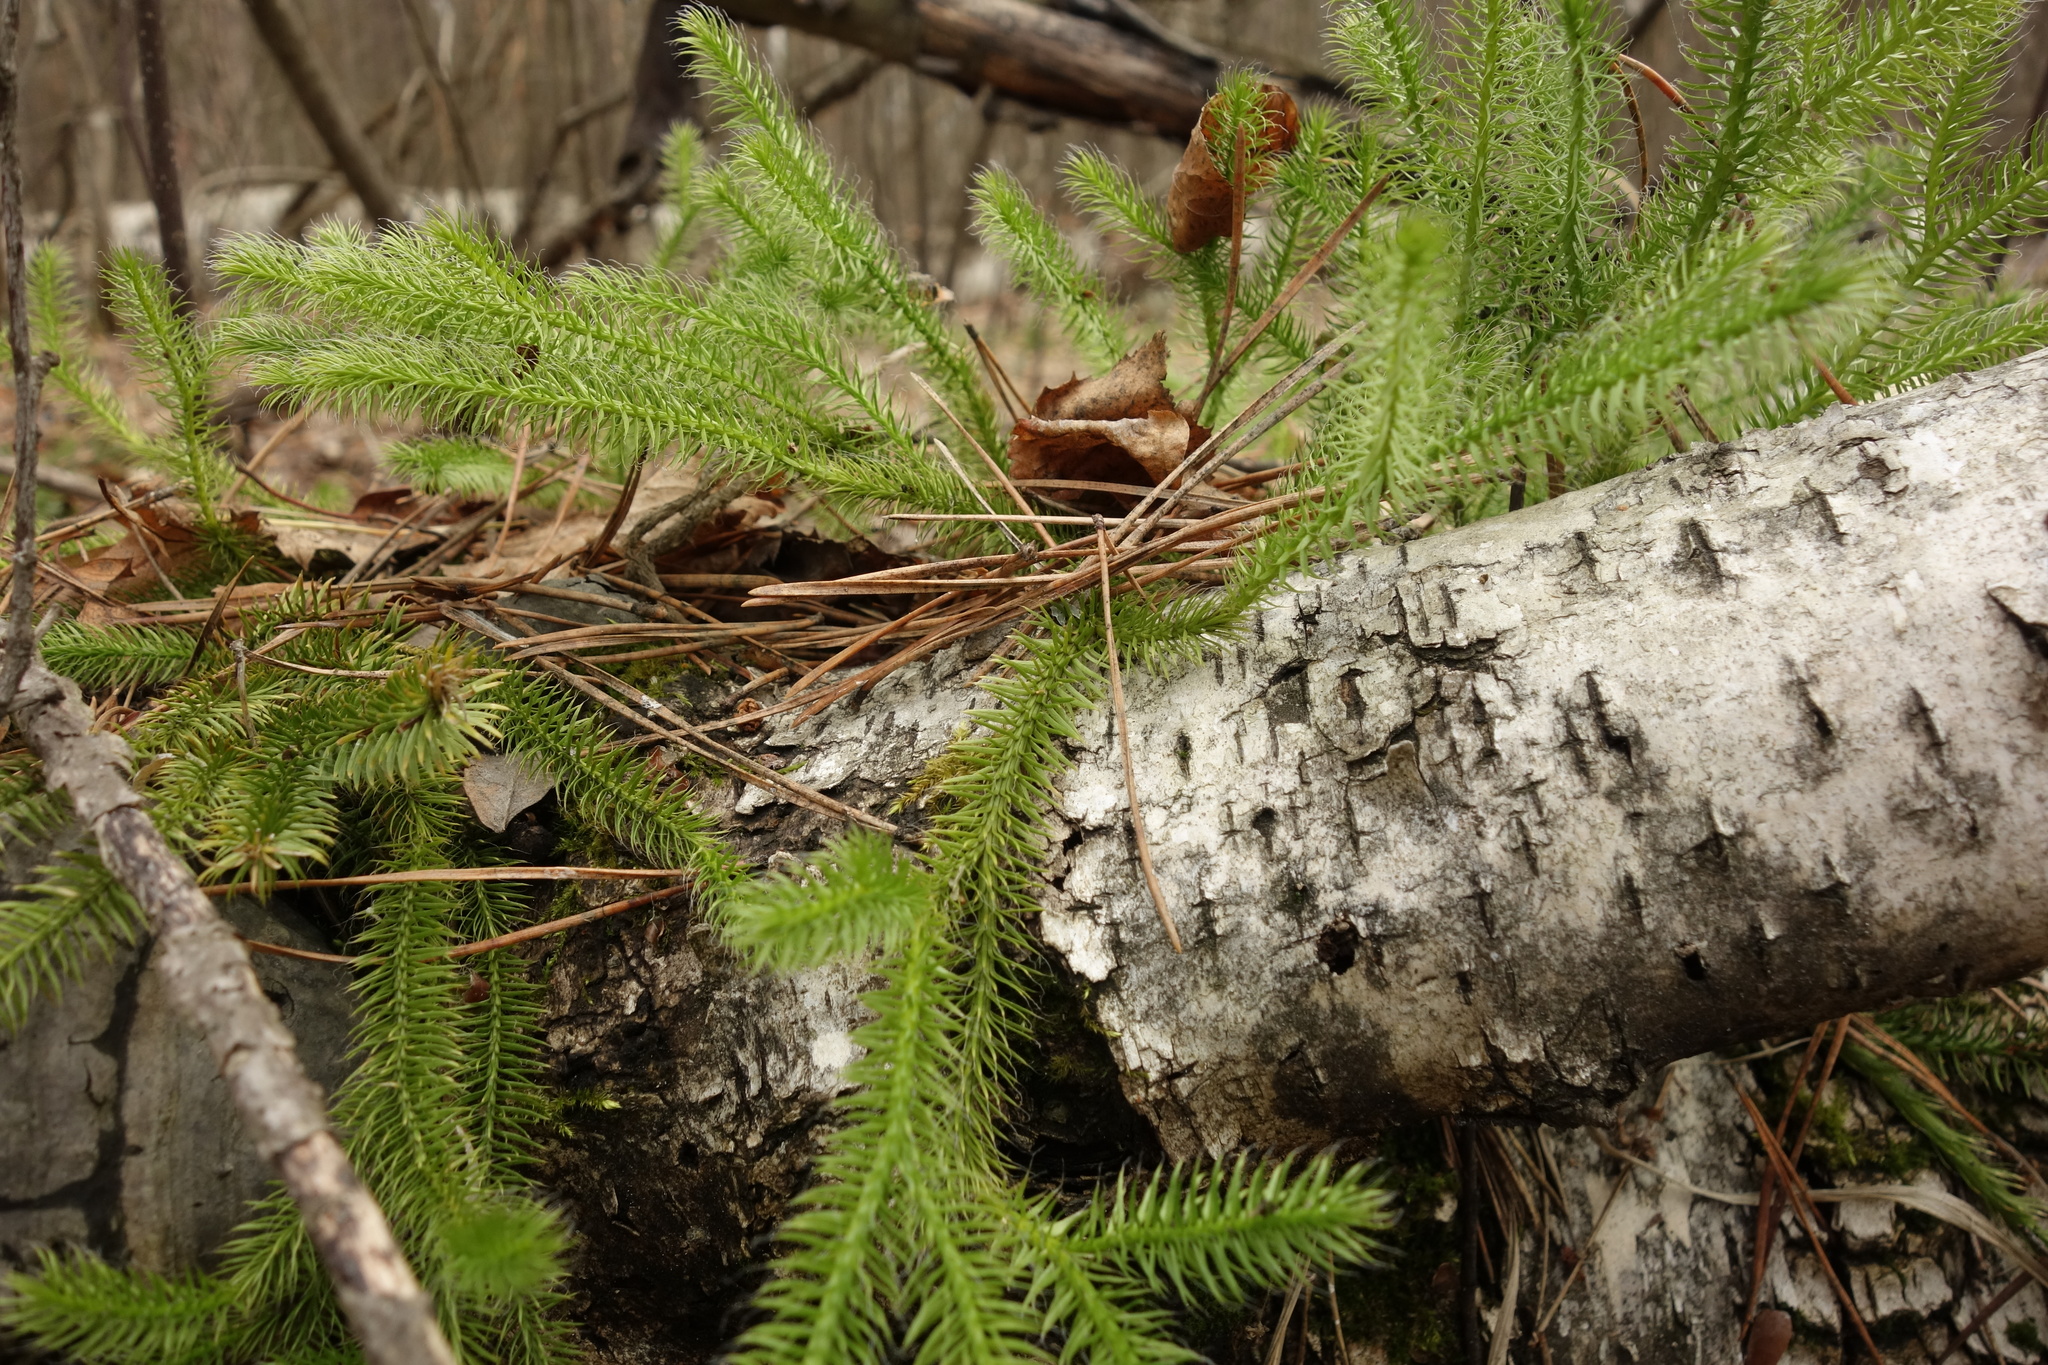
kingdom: Plantae
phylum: Tracheophyta
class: Lycopodiopsida
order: Lycopodiales
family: Lycopodiaceae
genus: Lycopodium
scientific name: Lycopodium clavatum
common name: Stag's-horn clubmoss
